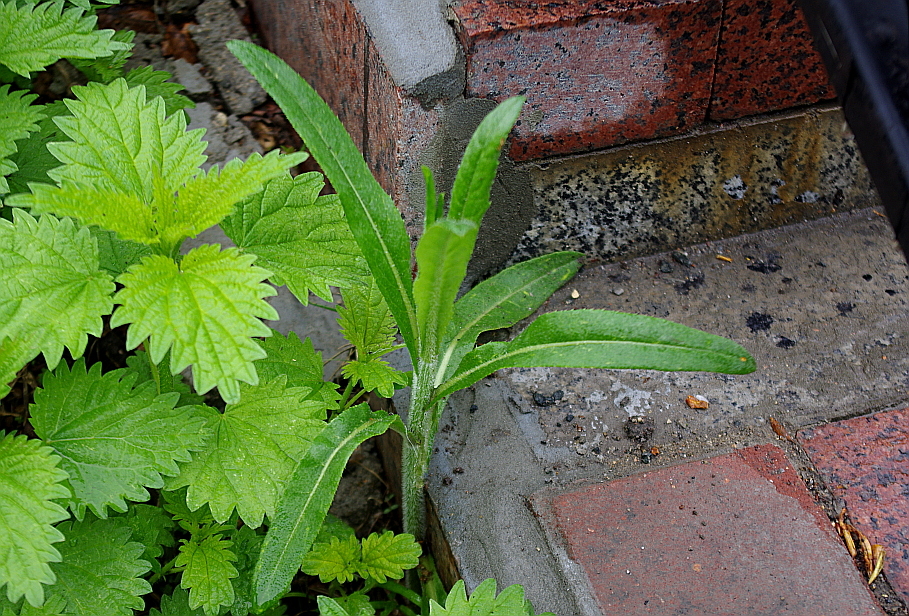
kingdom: Plantae
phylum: Tracheophyta
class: Magnoliopsida
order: Asterales
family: Asteraceae
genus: Cirsium
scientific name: Cirsium arvense
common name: Creeping thistle
